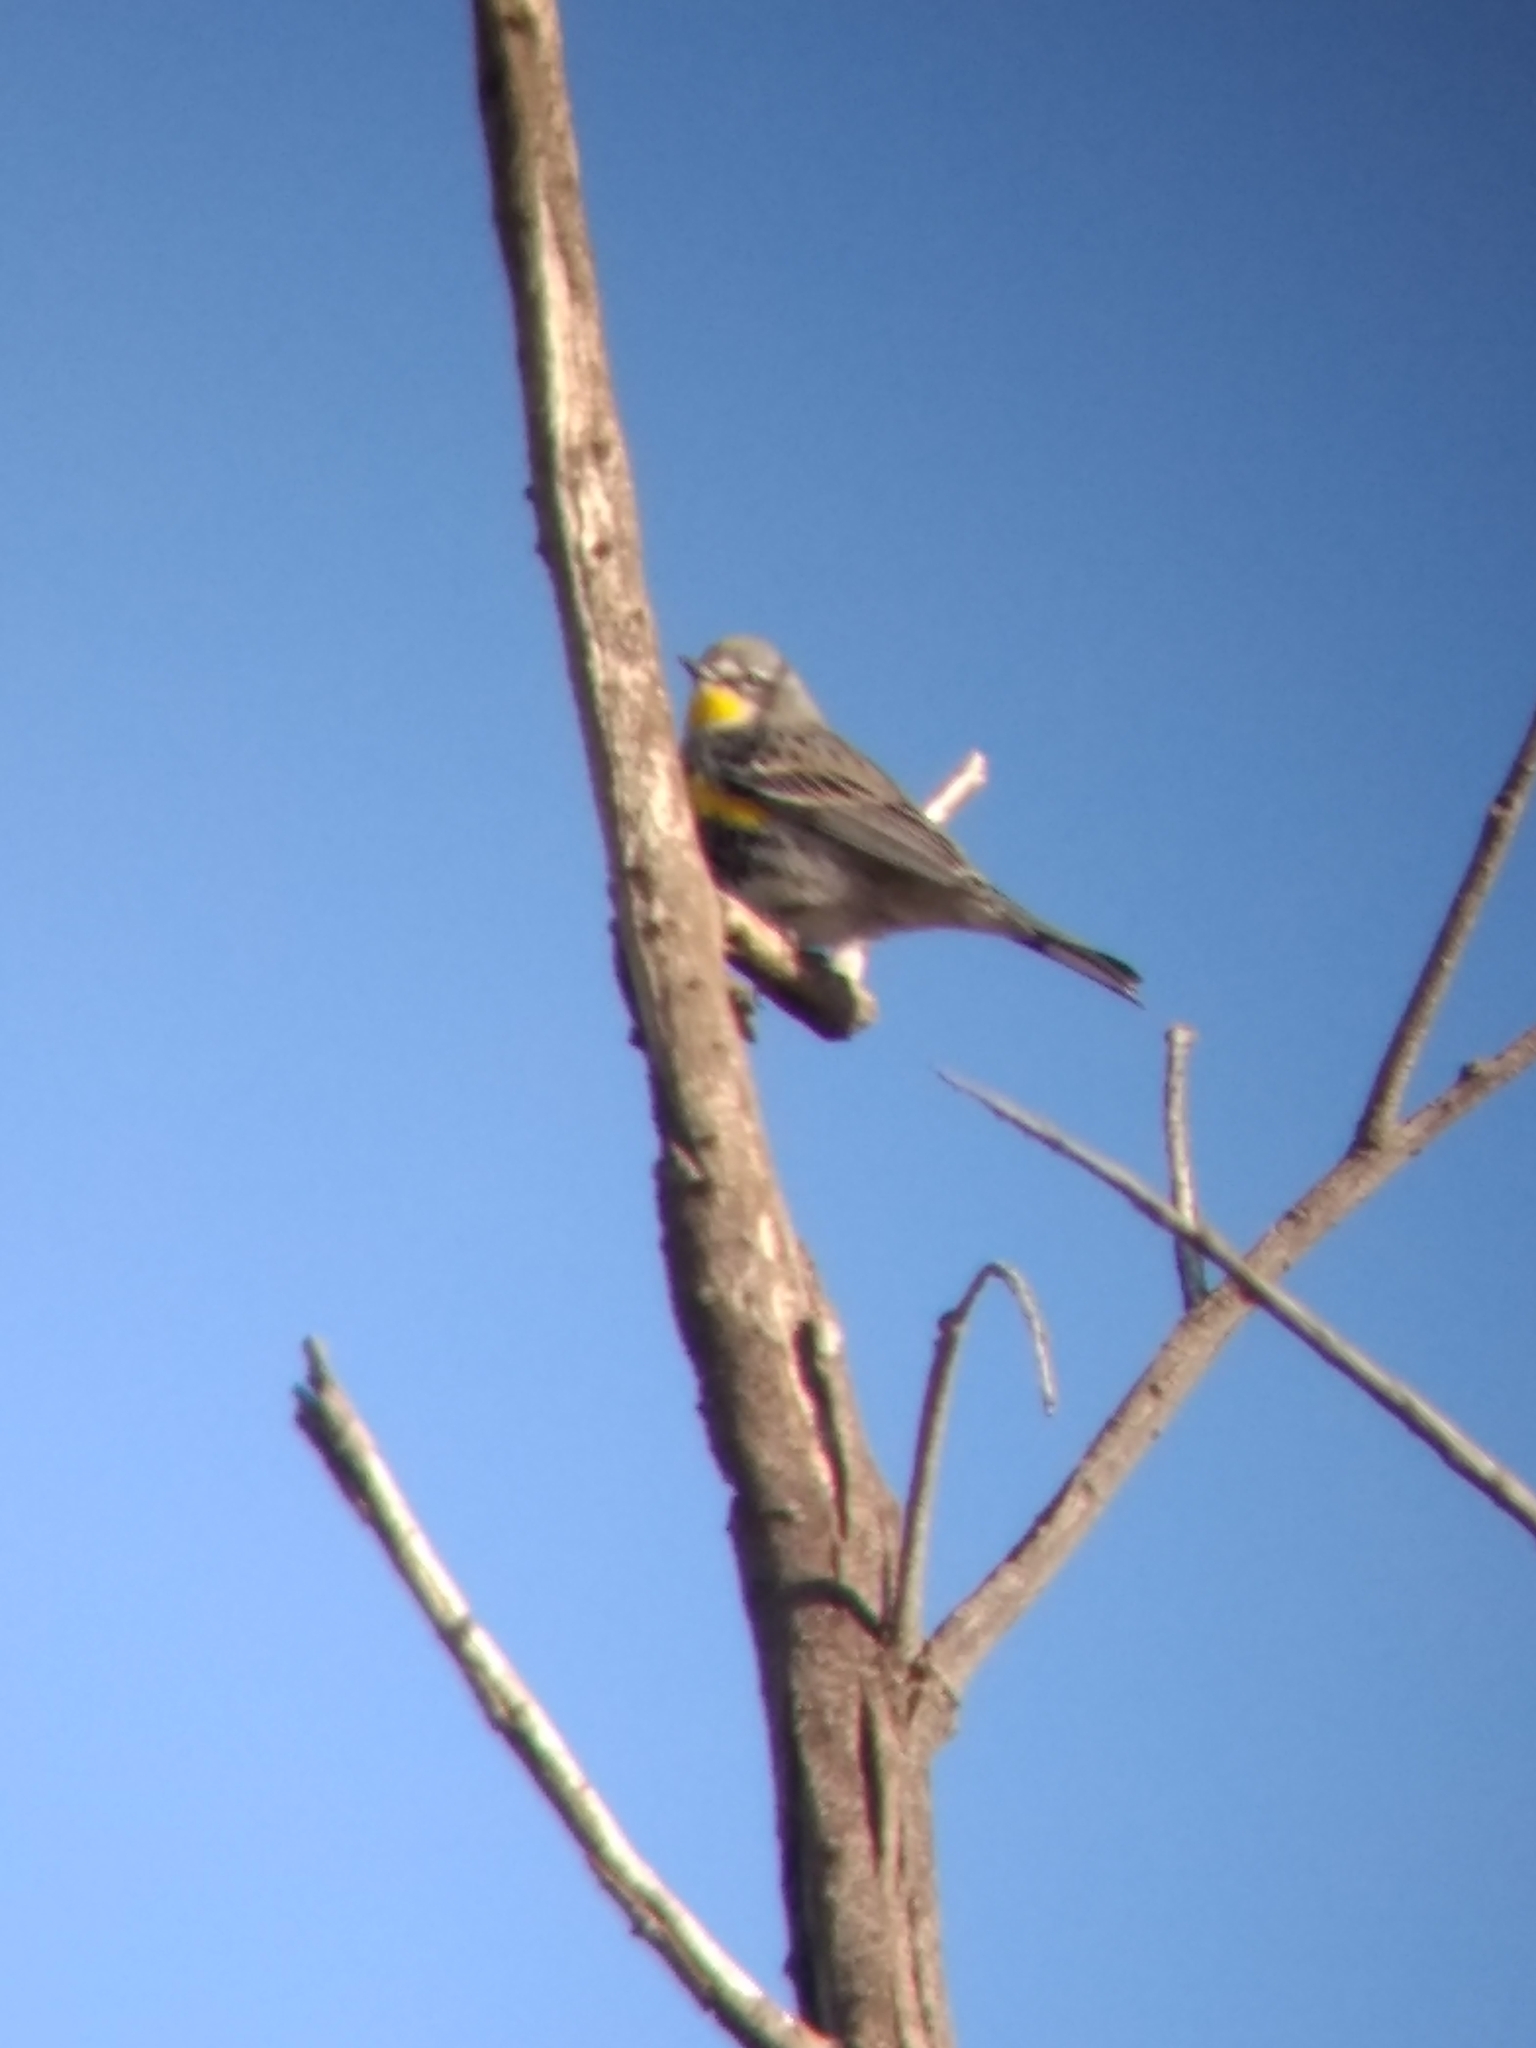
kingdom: Animalia
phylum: Chordata
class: Aves
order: Passeriformes
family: Parulidae
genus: Setophaga
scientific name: Setophaga coronata
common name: Myrtle warbler
